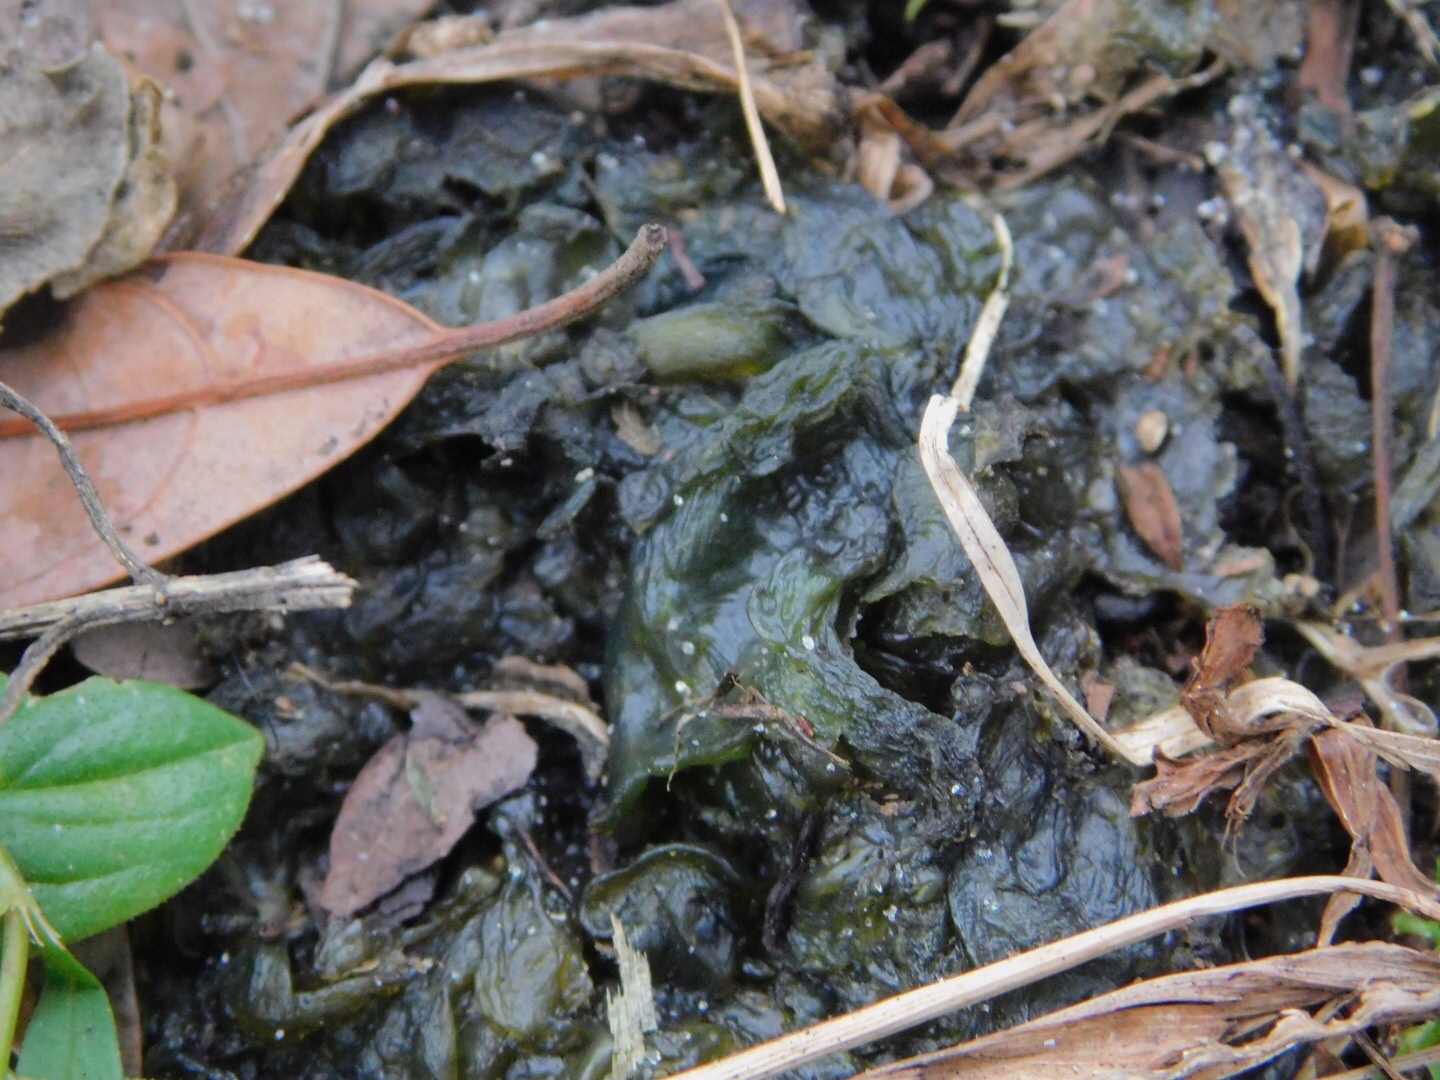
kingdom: Bacteria
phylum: Cyanobacteria
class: Cyanobacteriia
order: Cyanobacteriales
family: Nostocaceae
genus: Nostoc
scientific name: Nostoc commune
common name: Star jelly
